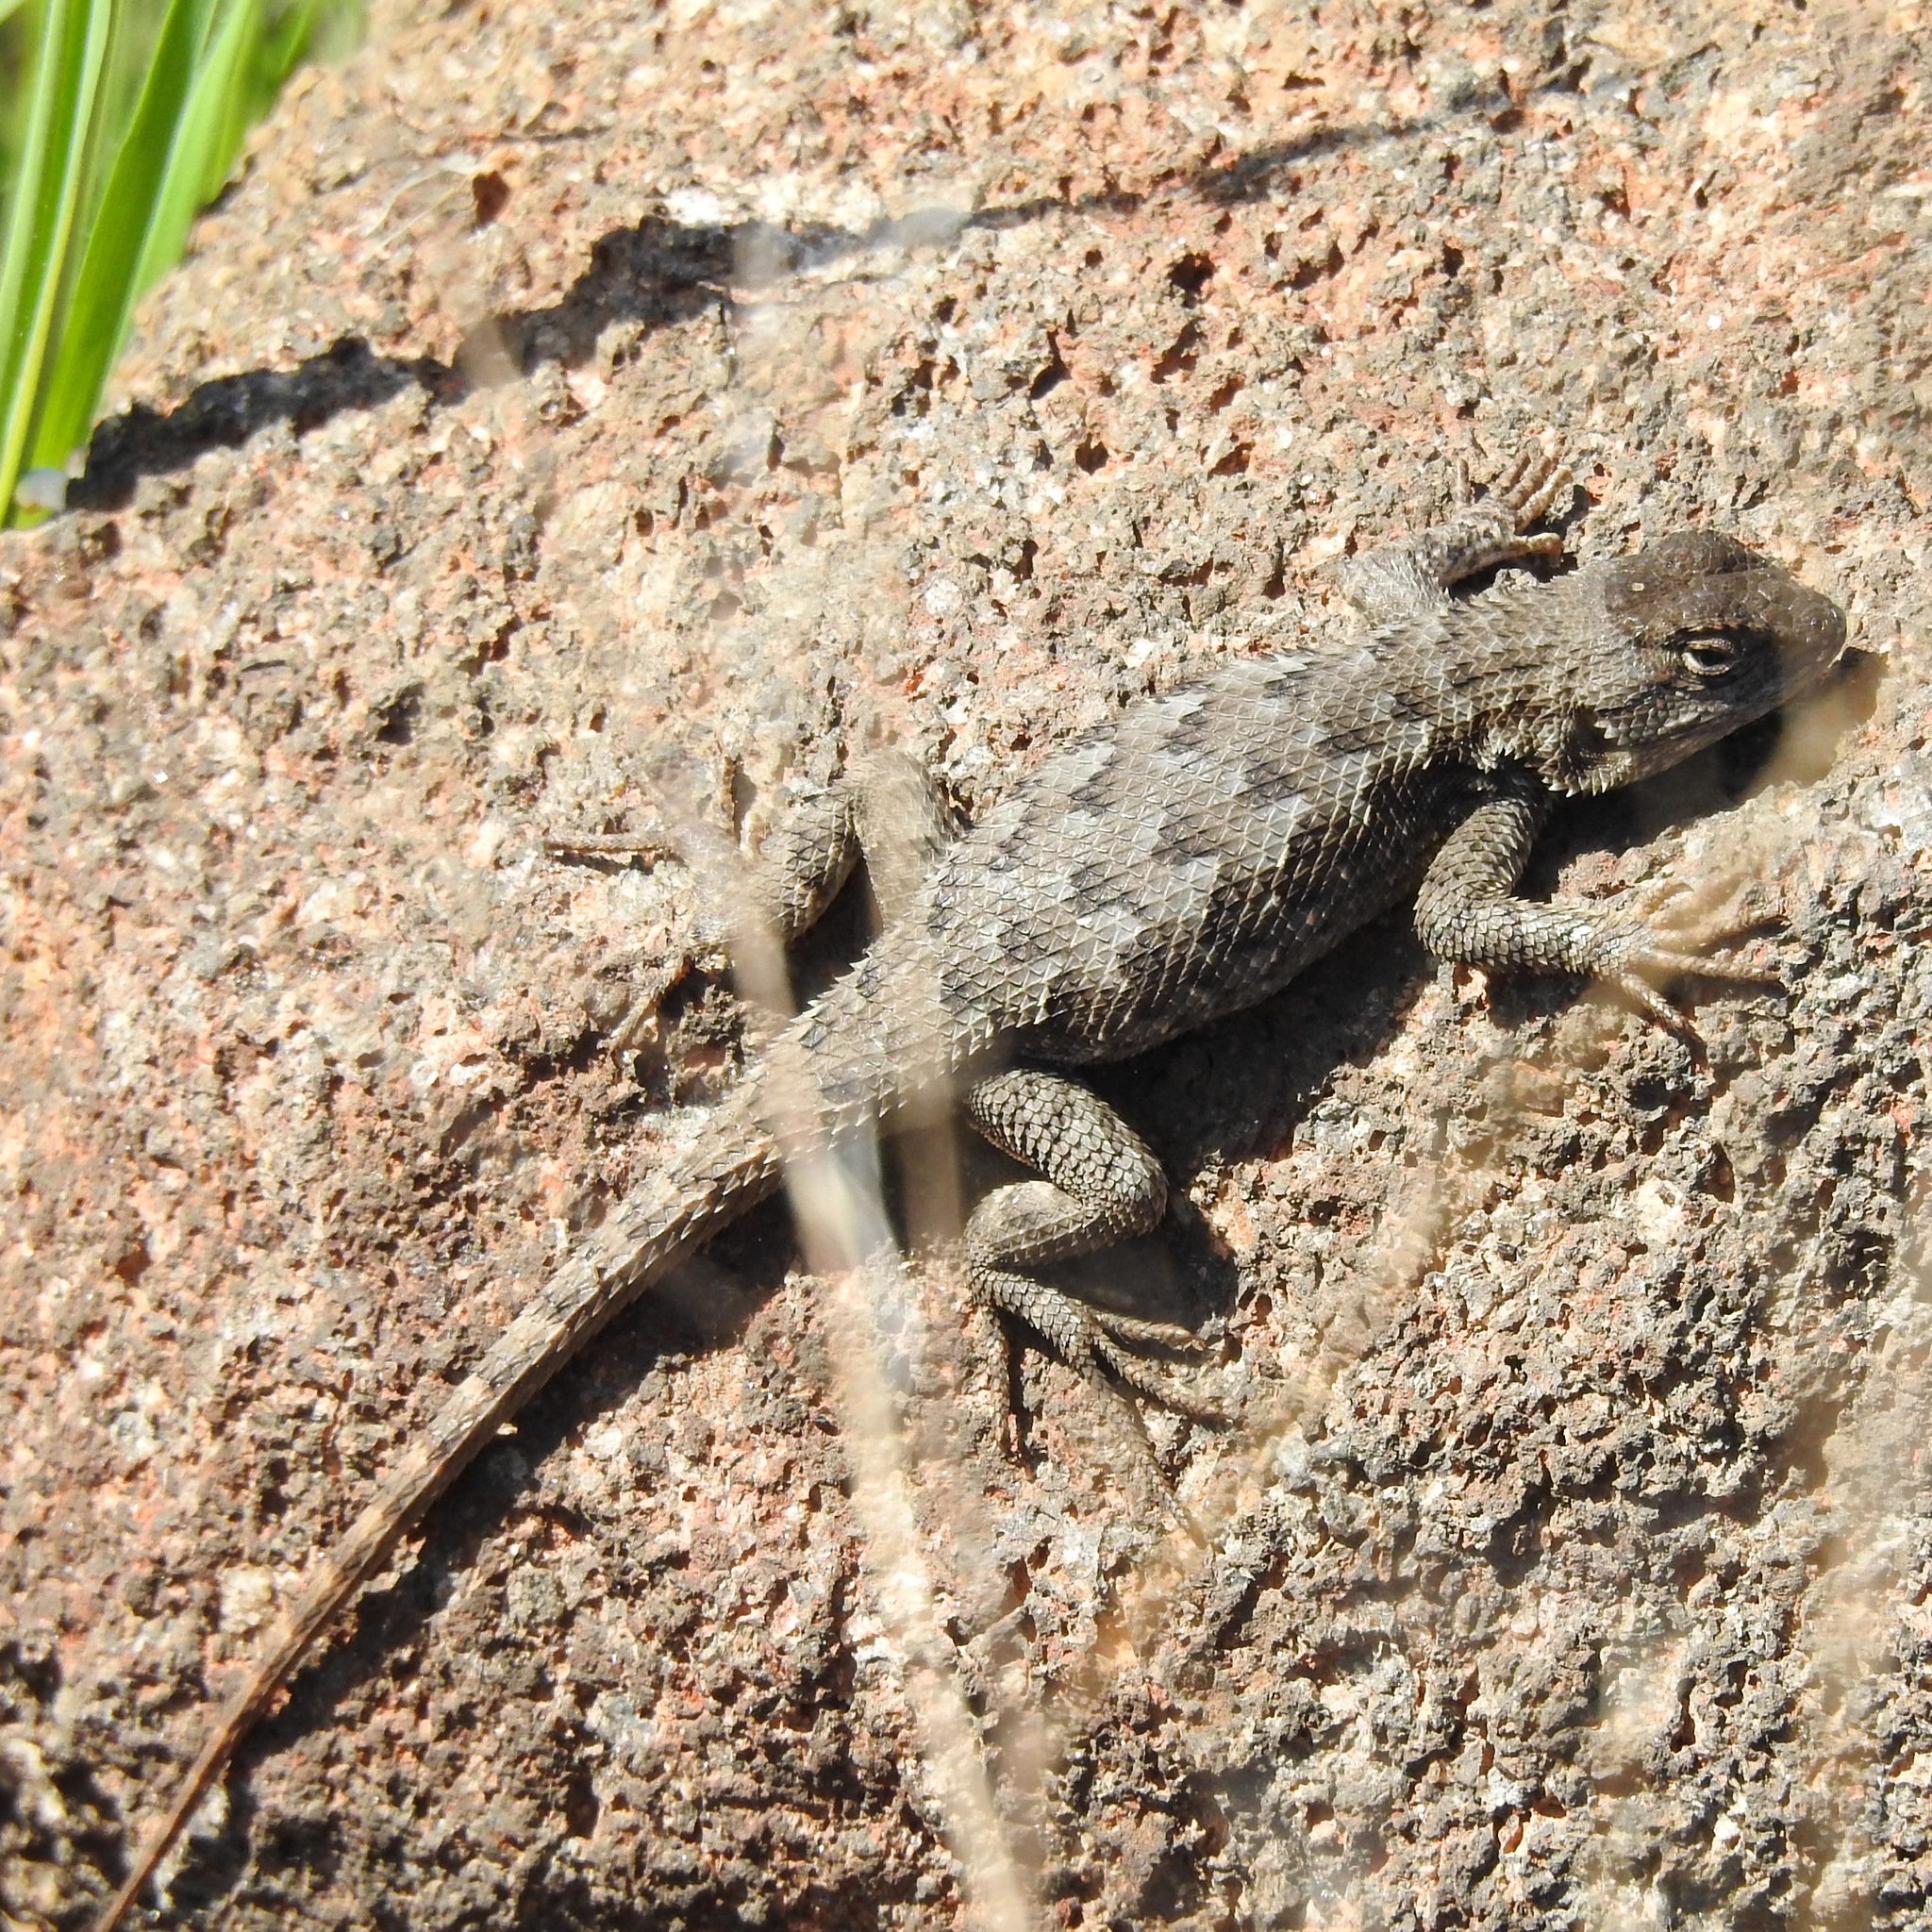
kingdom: Animalia
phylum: Chordata
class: Squamata
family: Phrynosomatidae
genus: Sceloporus
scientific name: Sceloporus occidentalis
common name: Western fence lizard
